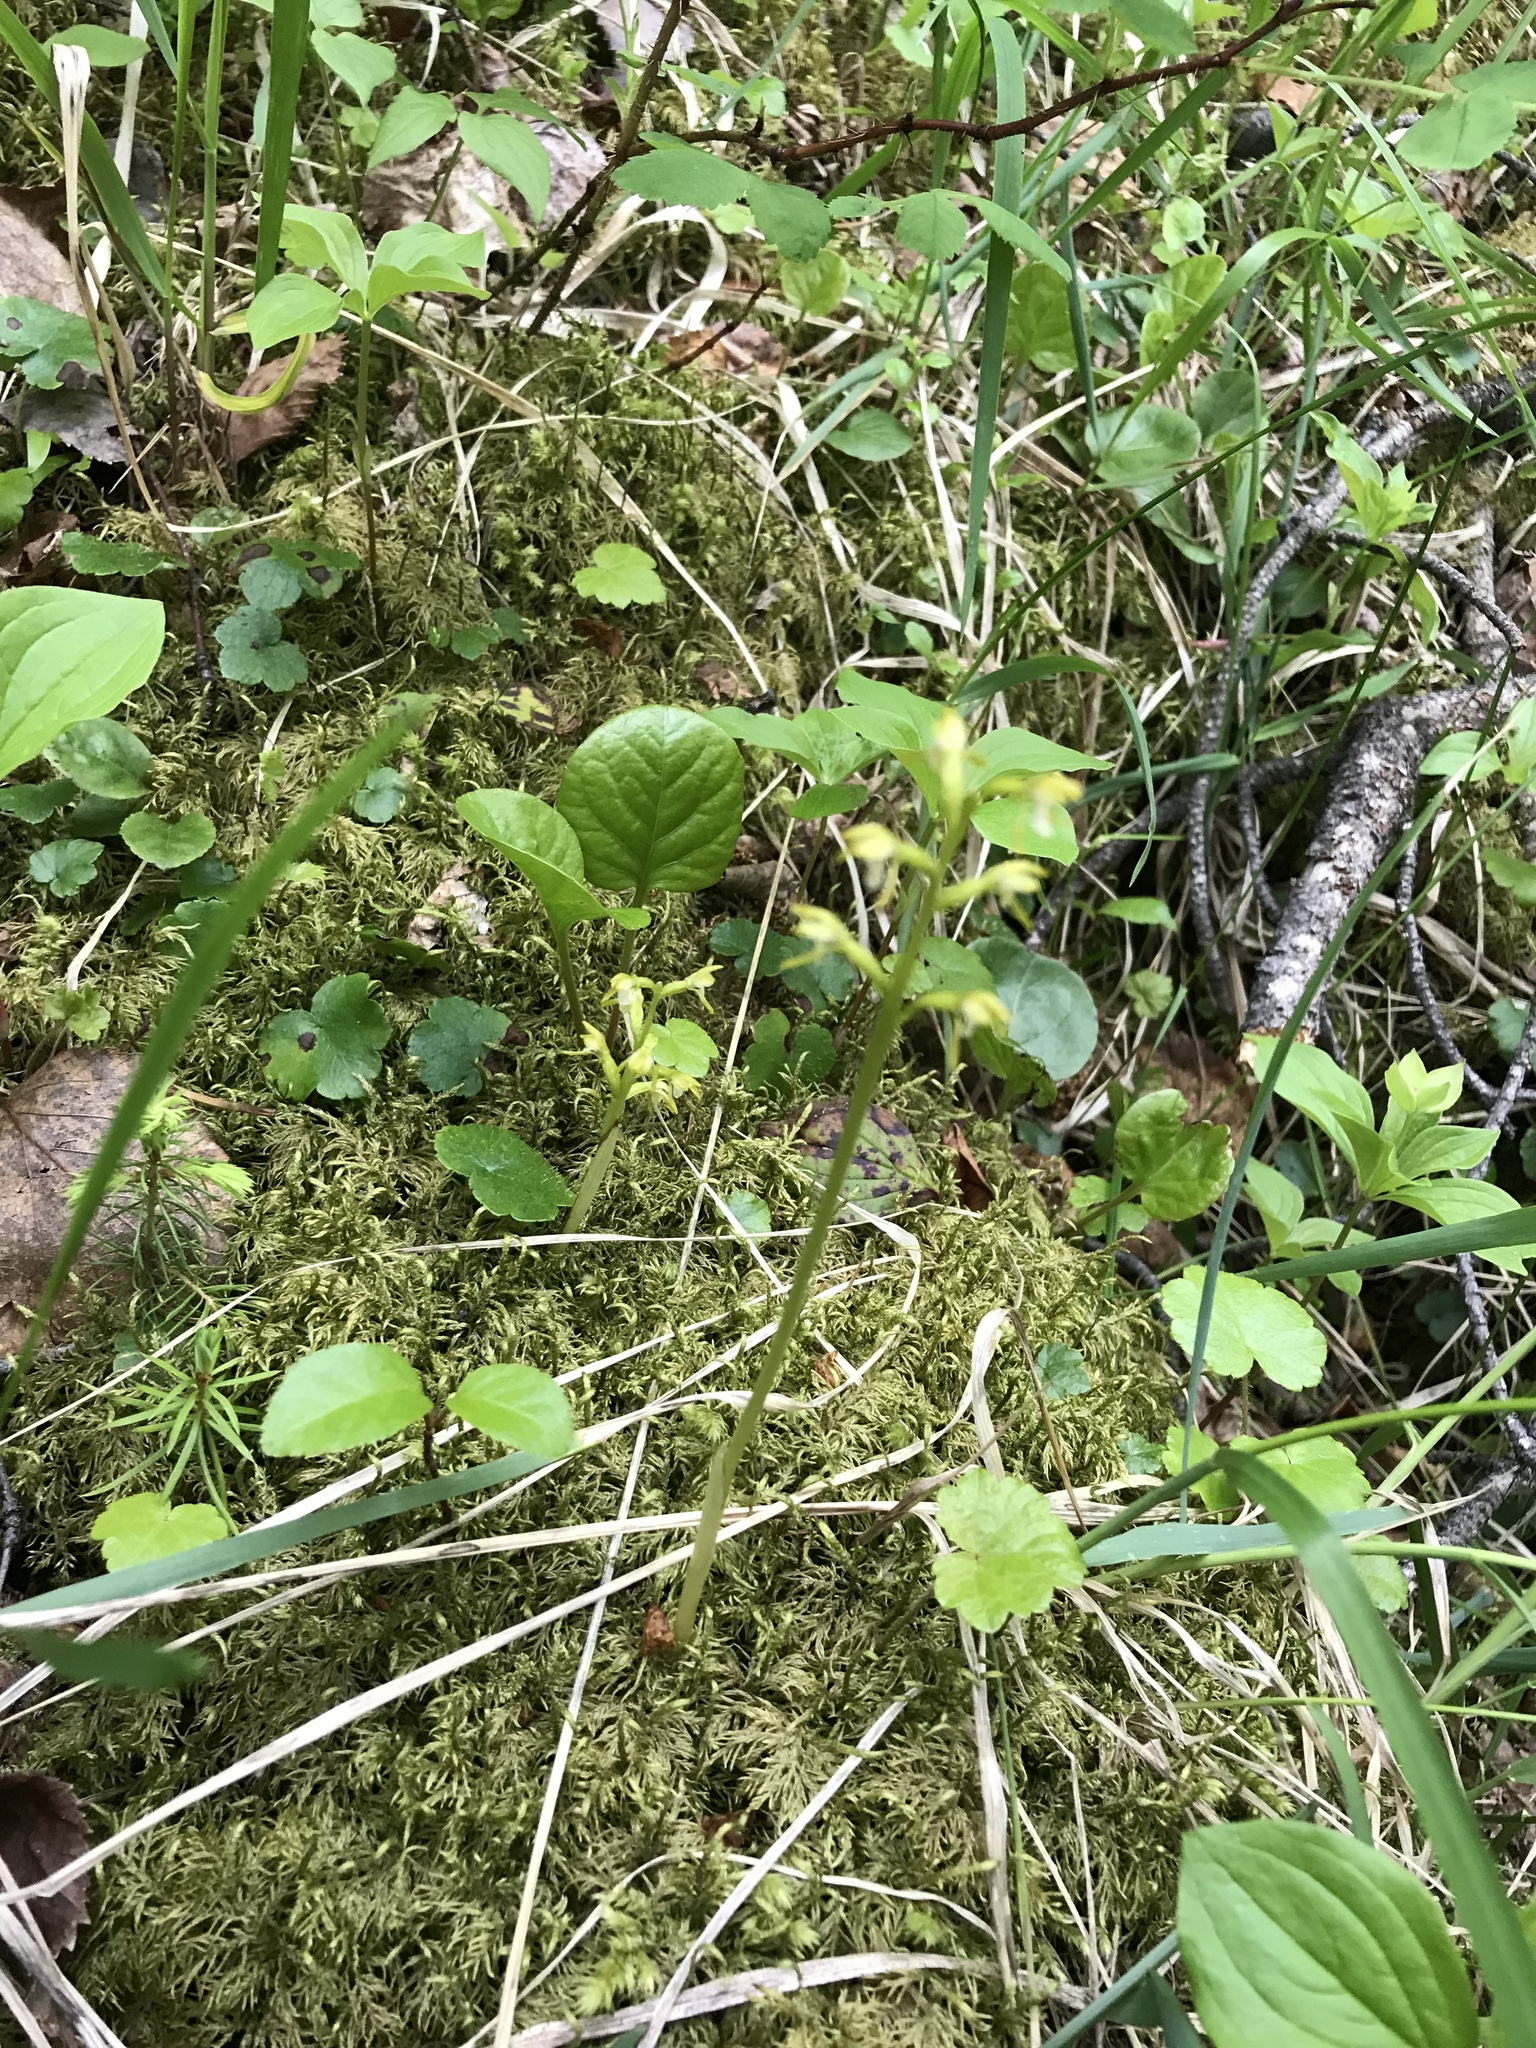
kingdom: Plantae
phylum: Tracheophyta
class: Liliopsida
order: Asparagales
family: Orchidaceae
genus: Corallorhiza
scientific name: Corallorhiza trifida
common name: Yellow coralroot
